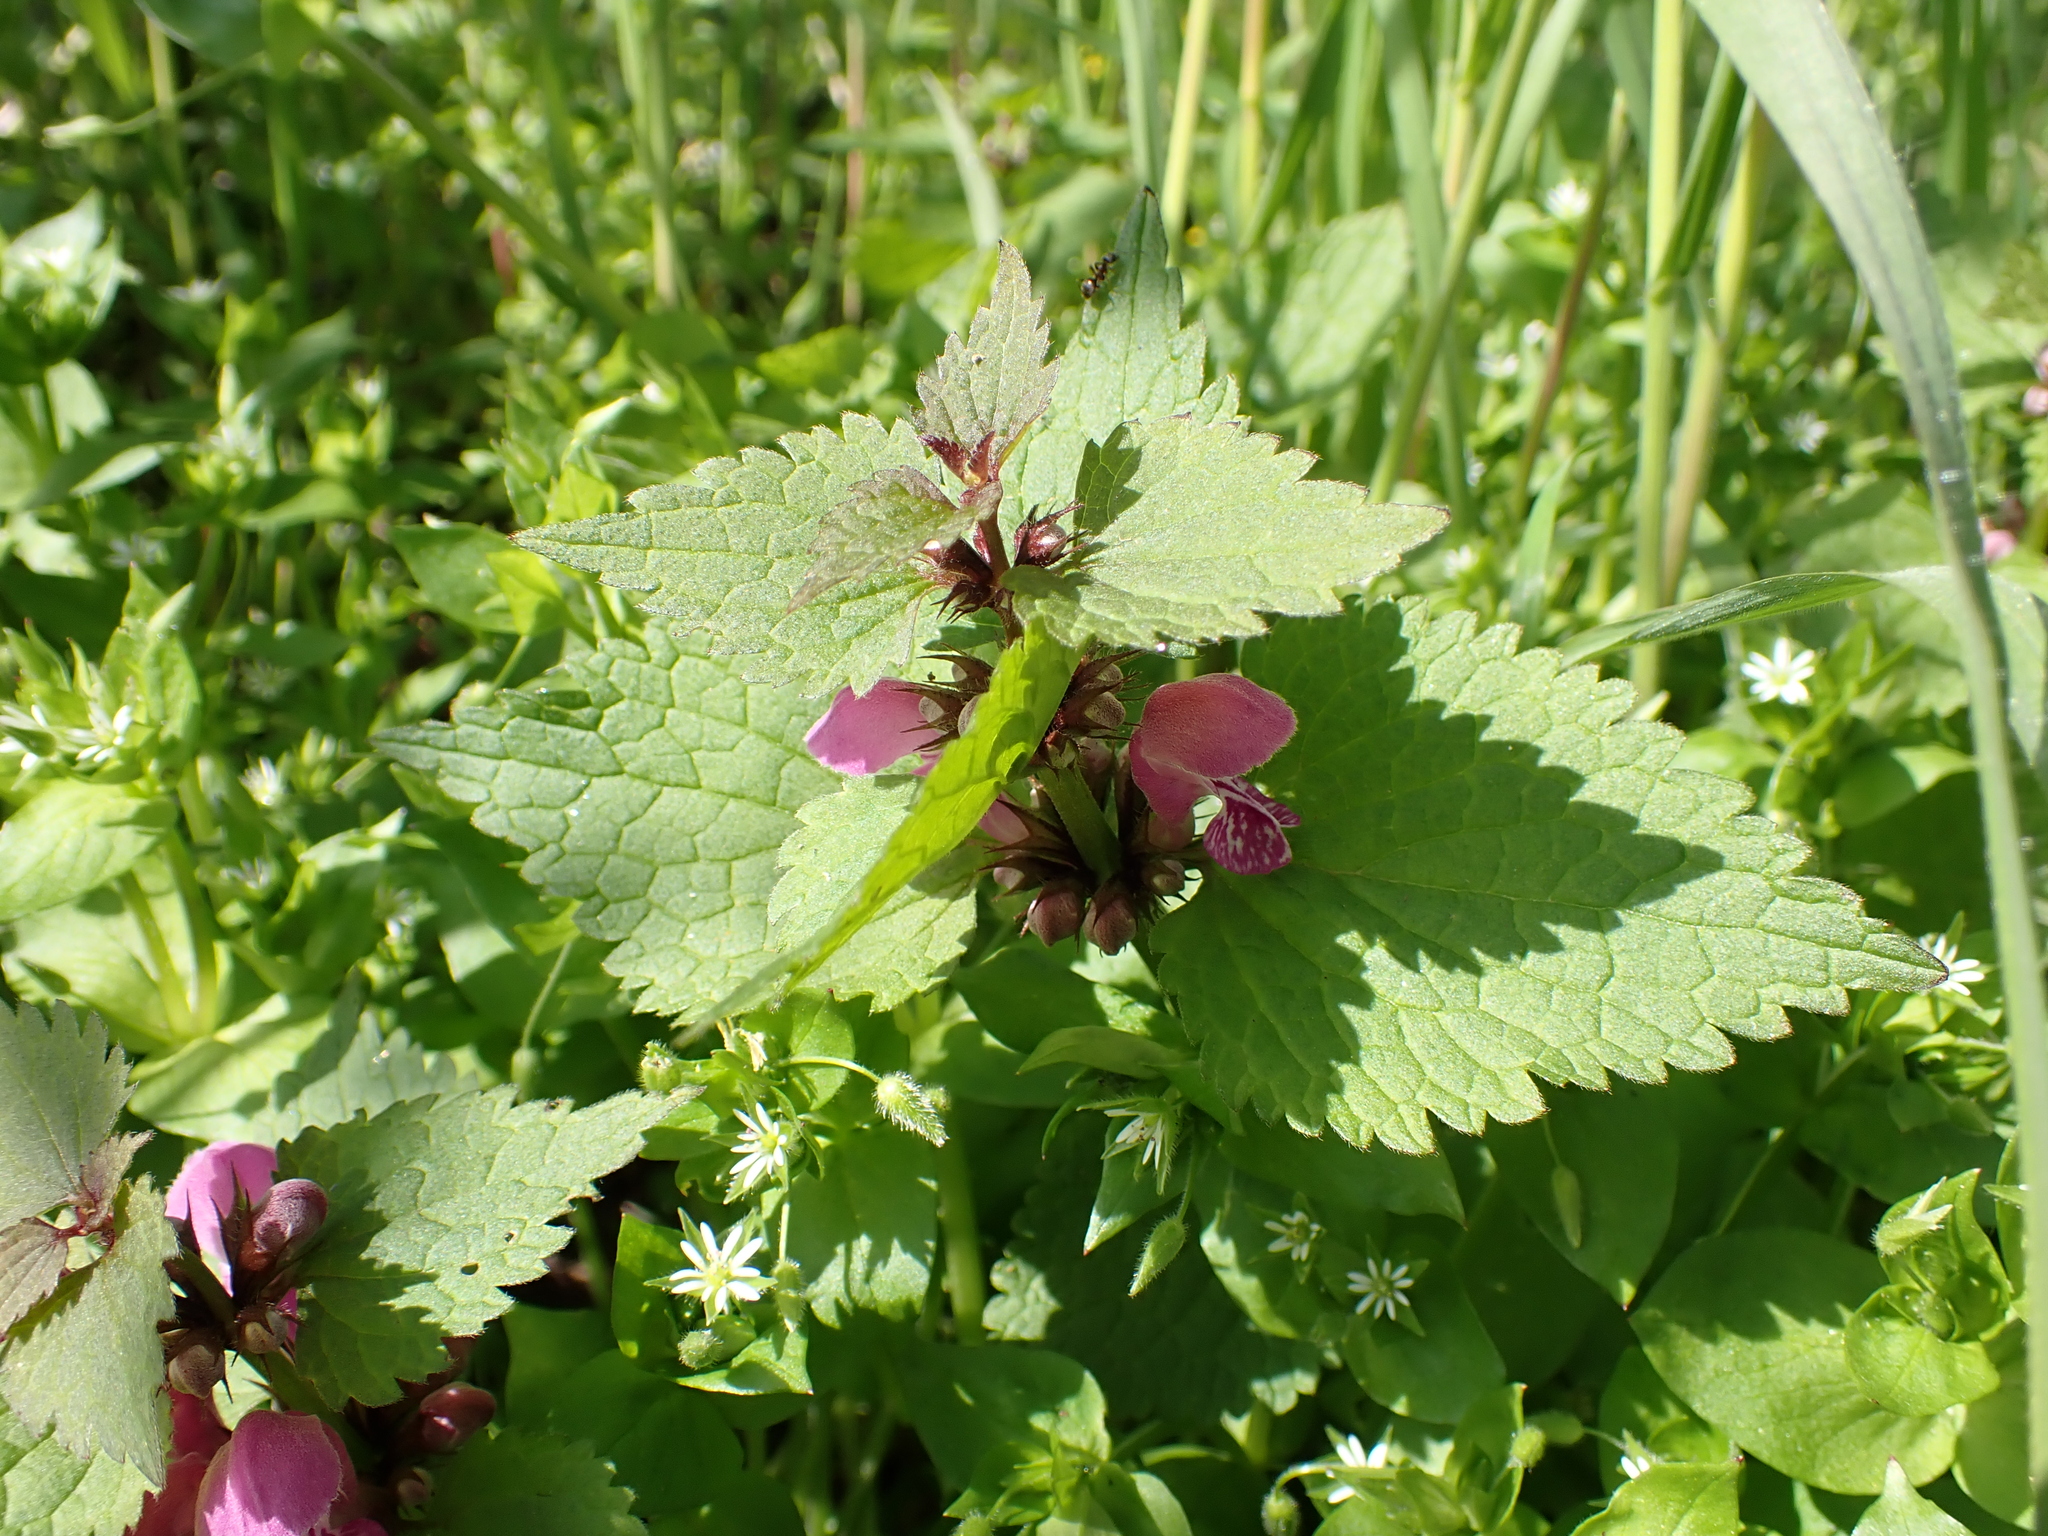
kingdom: Plantae
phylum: Tracheophyta
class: Magnoliopsida
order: Lamiales
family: Lamiaceae
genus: Lamium
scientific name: Lamium maculatum
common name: Spotted dead-nettle
